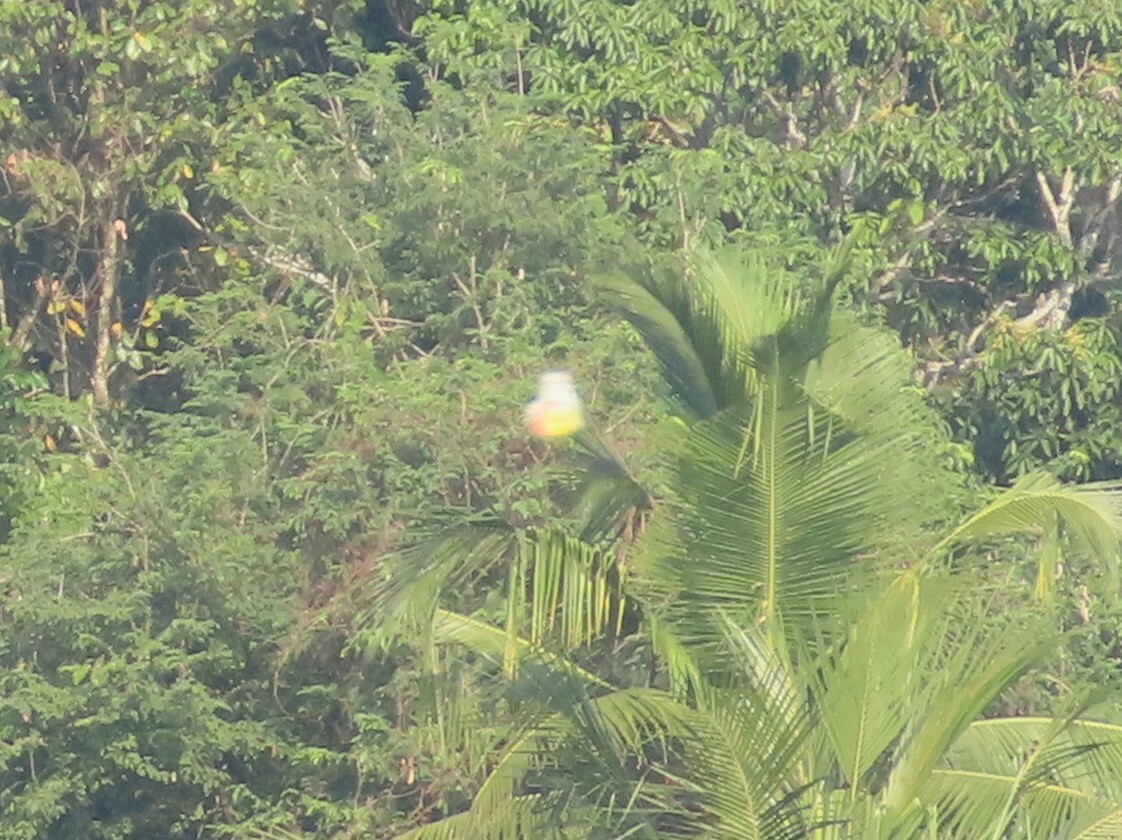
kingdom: Animalia
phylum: Arthropoda
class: Insecta
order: Lepidoptera
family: Pieridae
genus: Delias
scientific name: Delias eucharis
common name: Common jezebel
